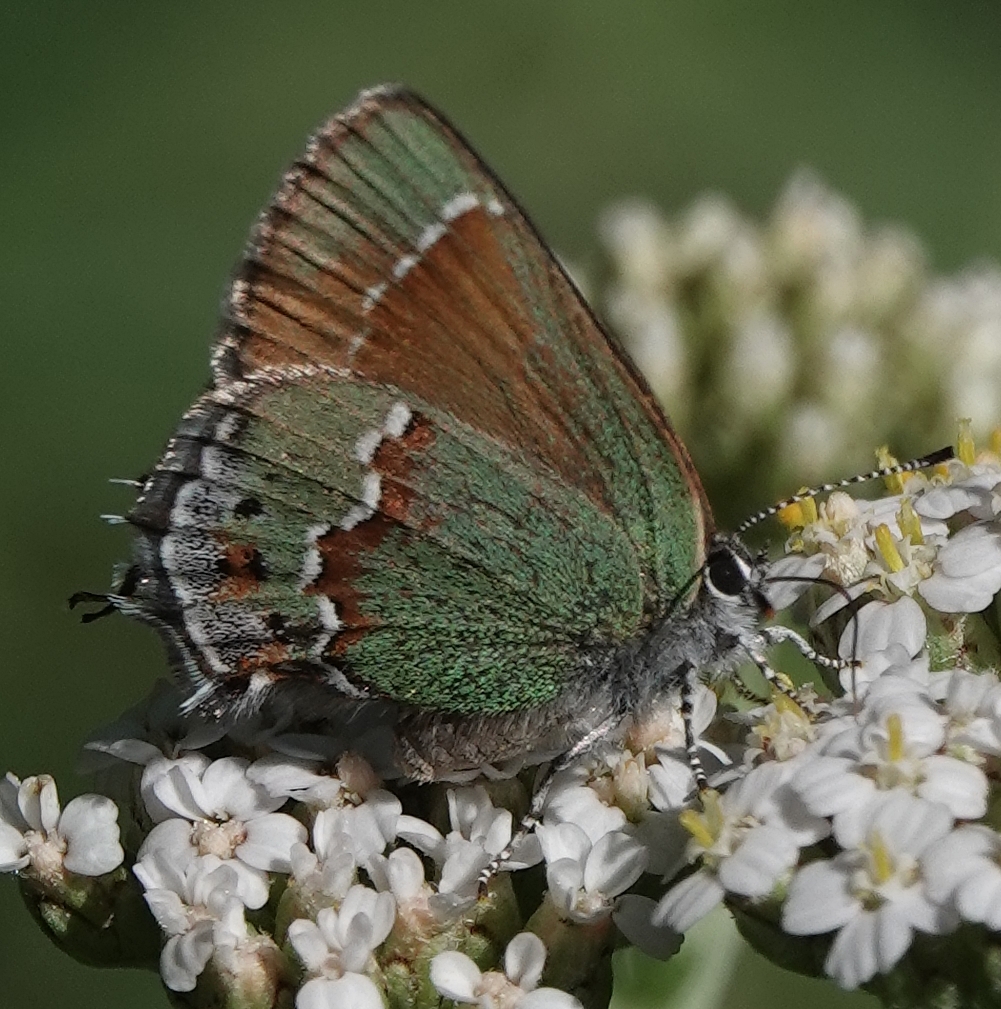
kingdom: Animalia
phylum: Arthropoda
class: Insecta
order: Lepidoptera
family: Lycaenidae
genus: Mitoura
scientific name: Mitoura gryneus
